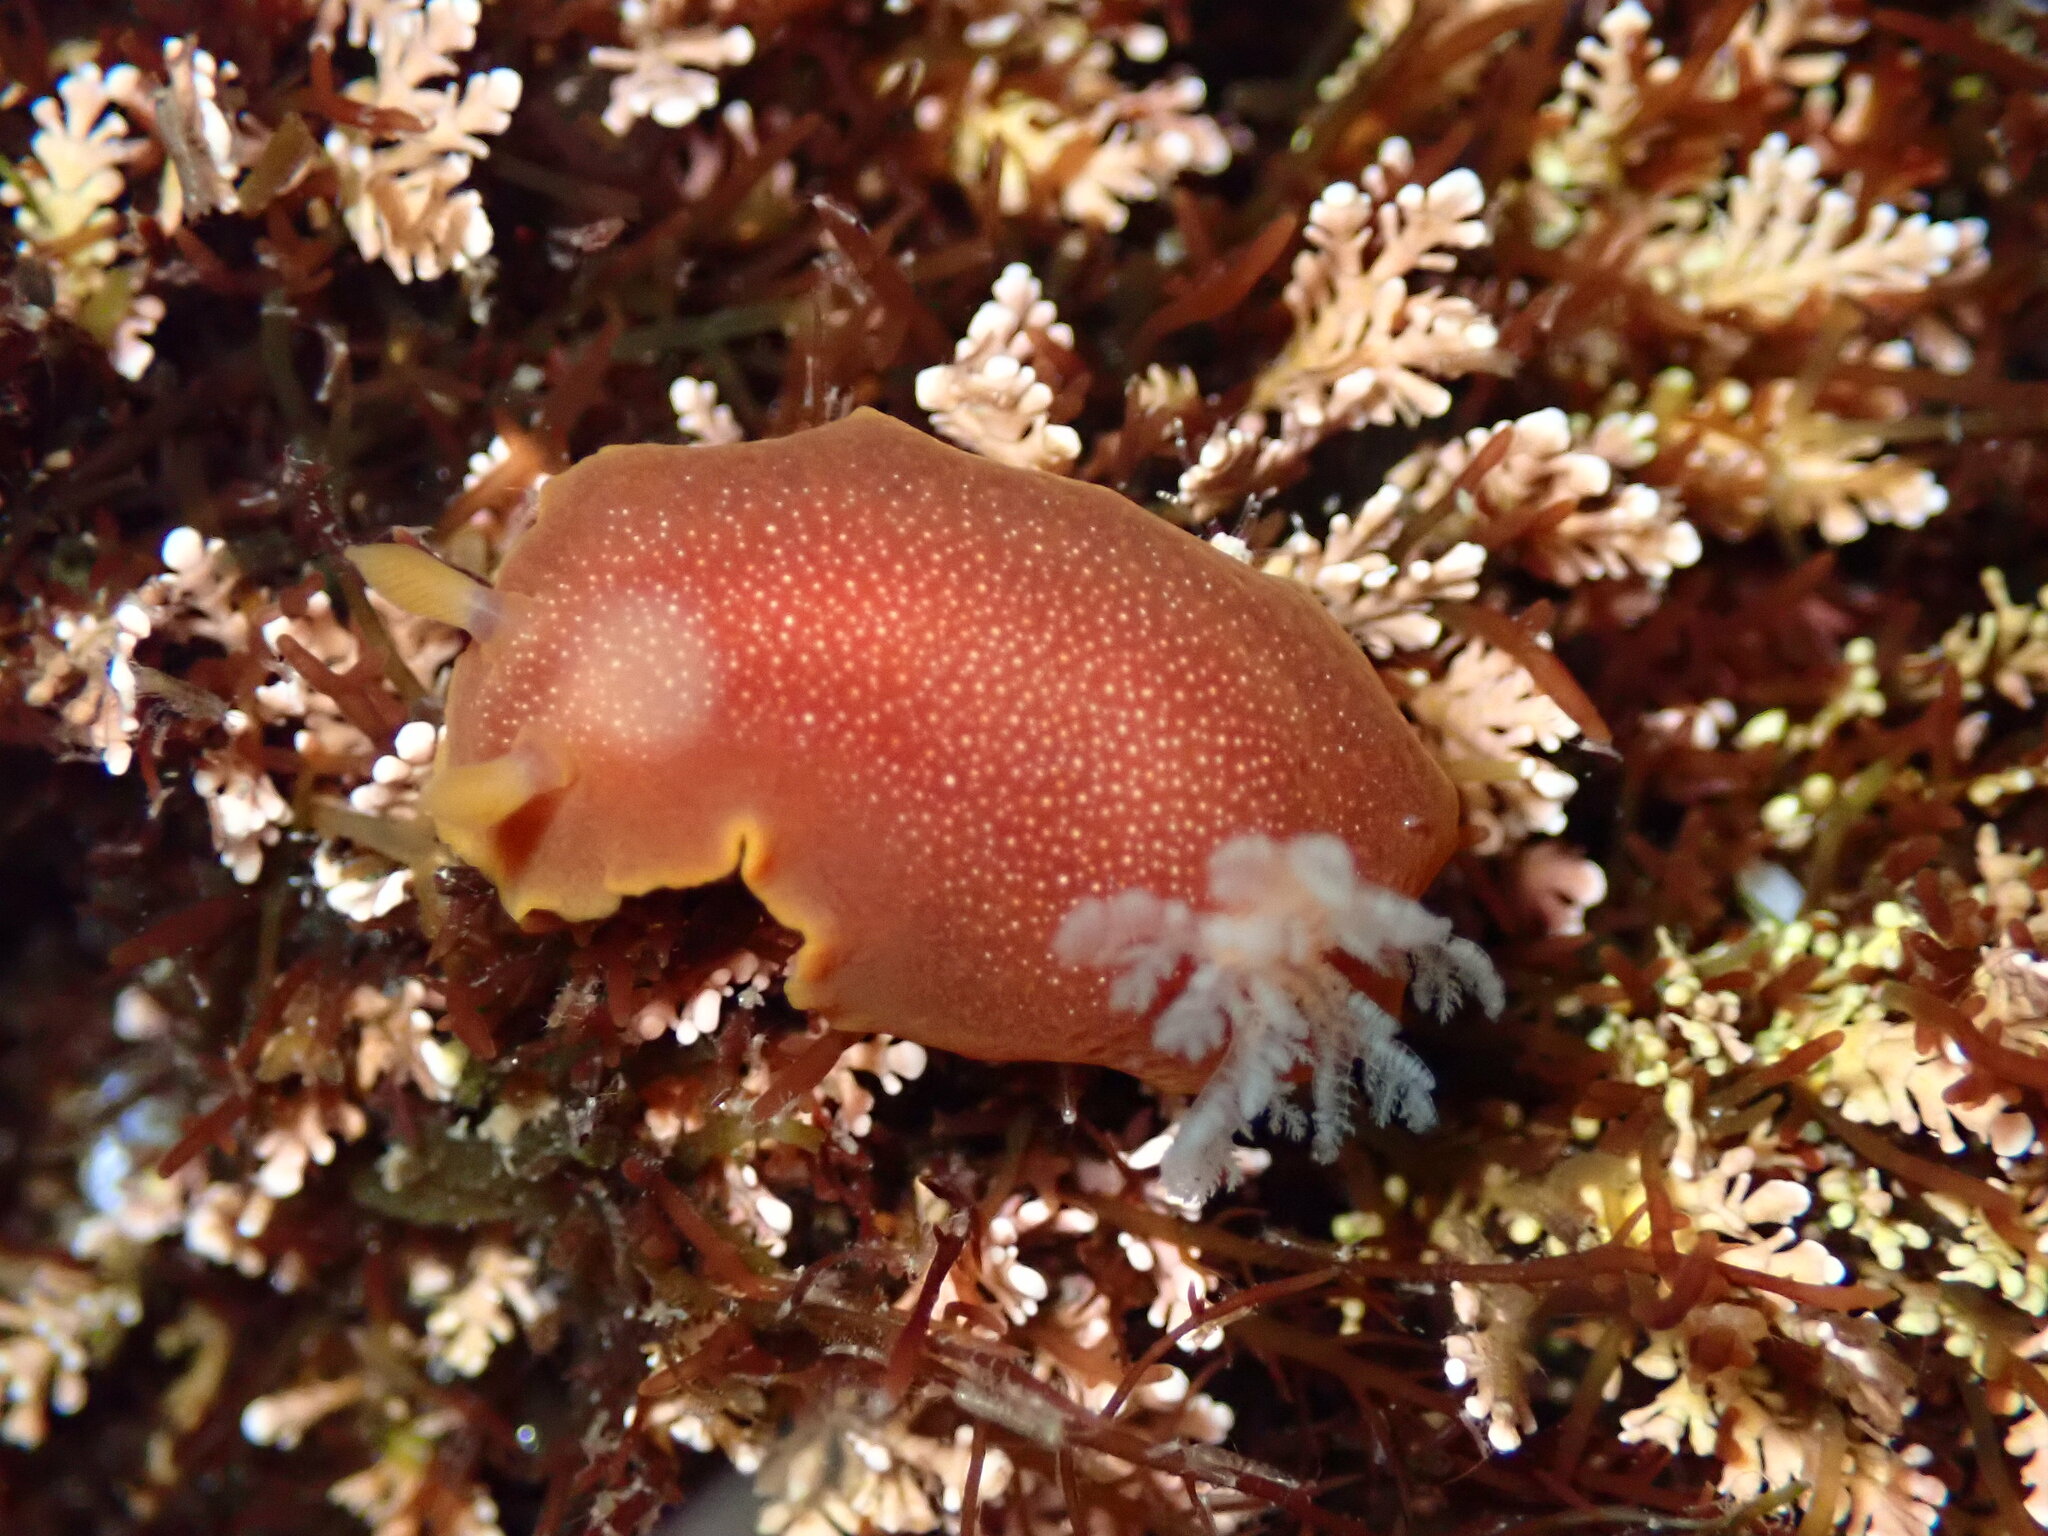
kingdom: Animalia
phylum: Mollusca
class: Gastropoda
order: Nudibranchia
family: Dendrodorididae
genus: Doriopsilla
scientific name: Doriopsilla albopunctata
